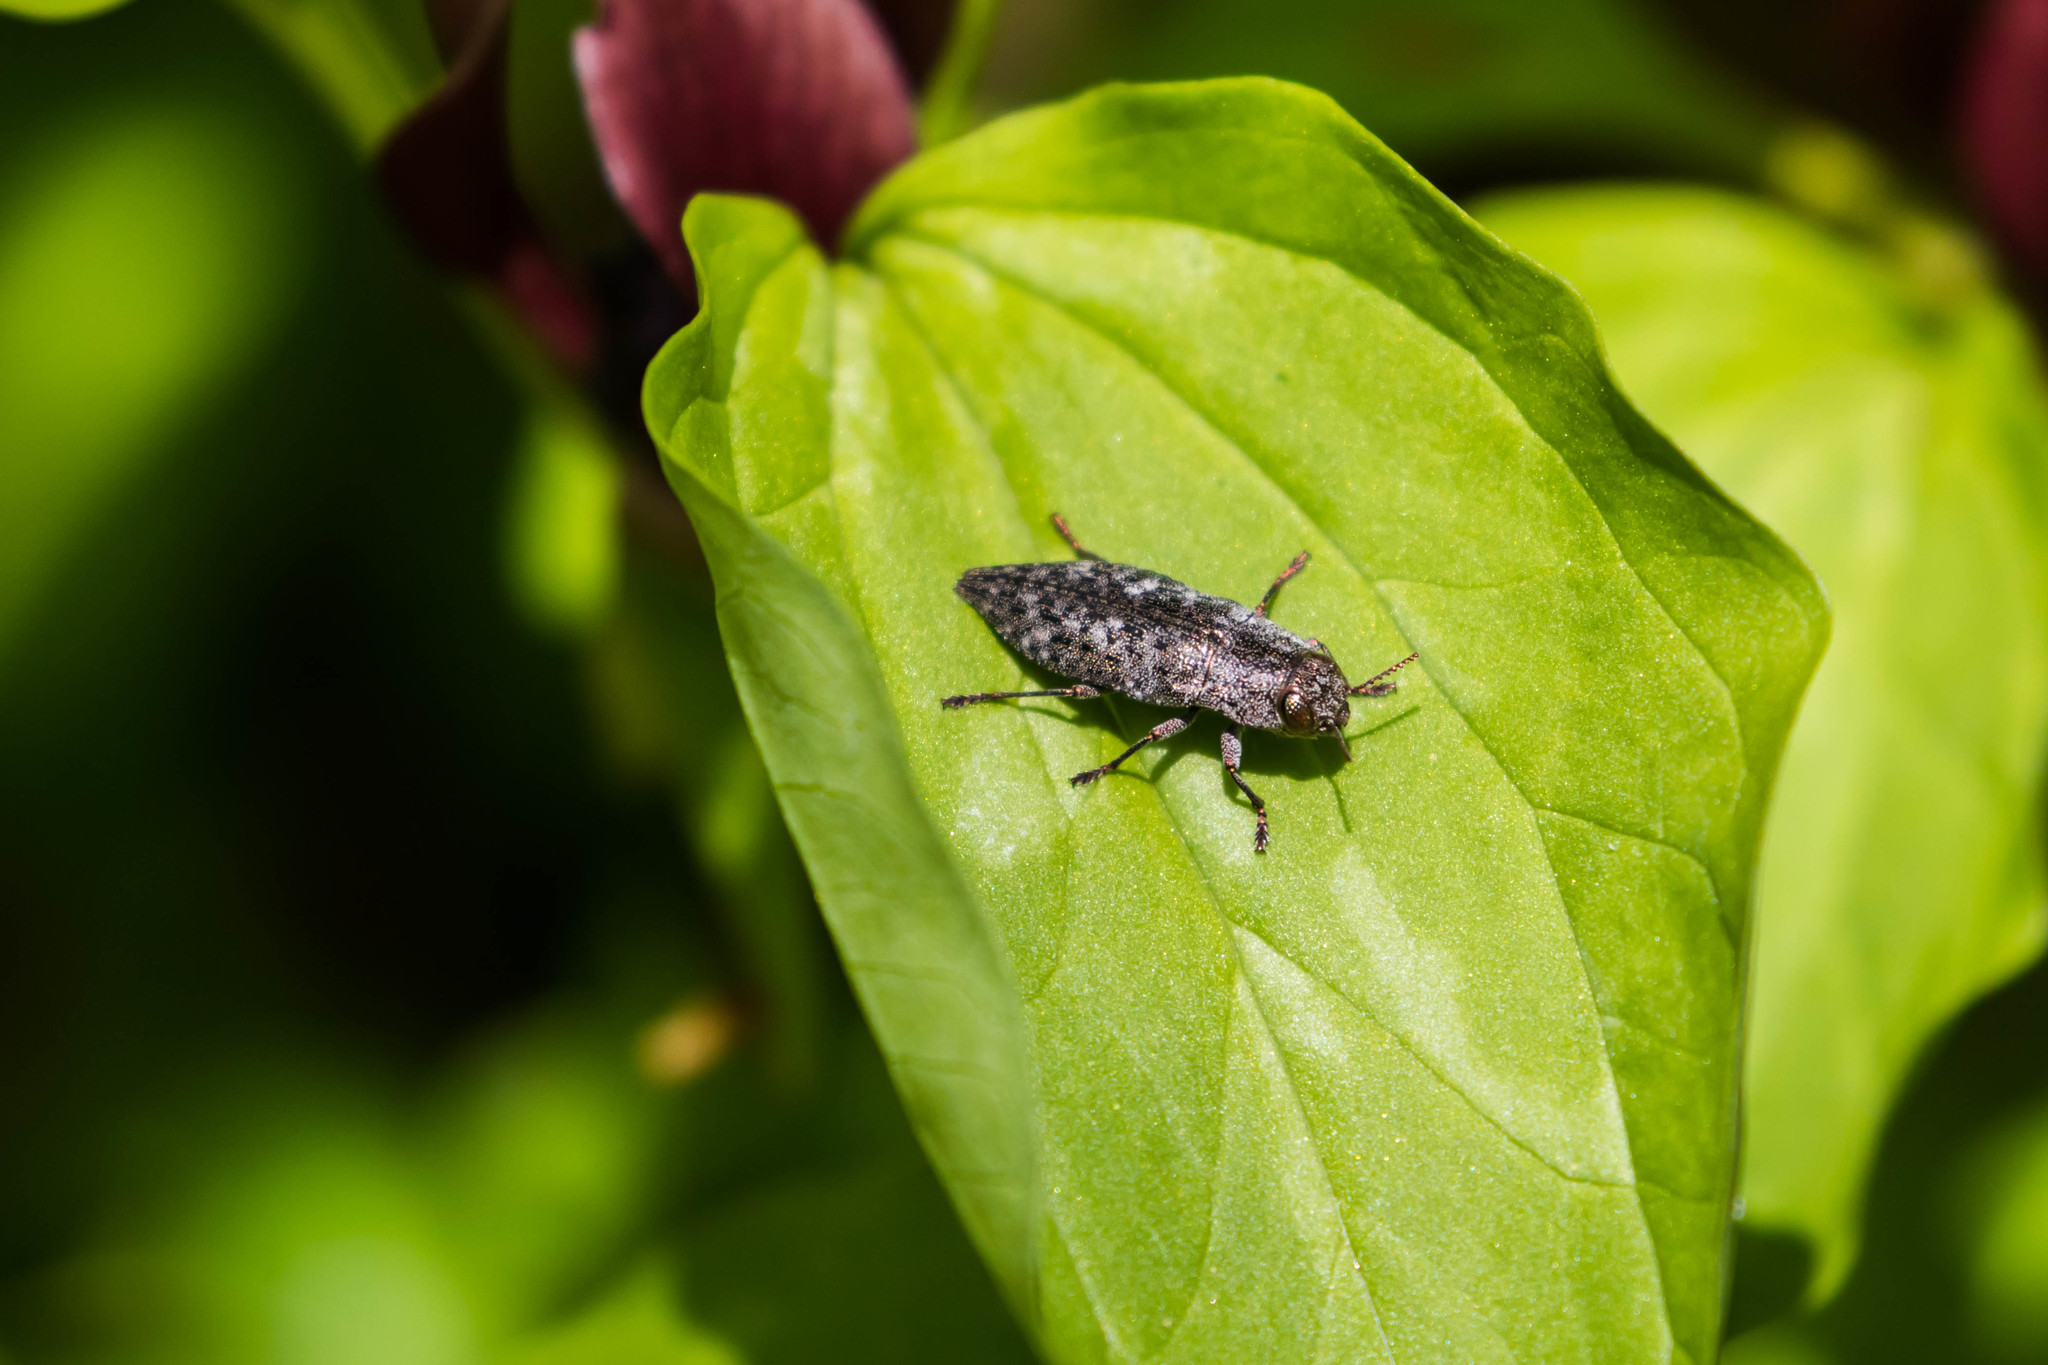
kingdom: Animalia
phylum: Arthropoda
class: Insecta
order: Coleoptera
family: Buprestidae
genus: Dicerca
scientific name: Dicerca lurida
